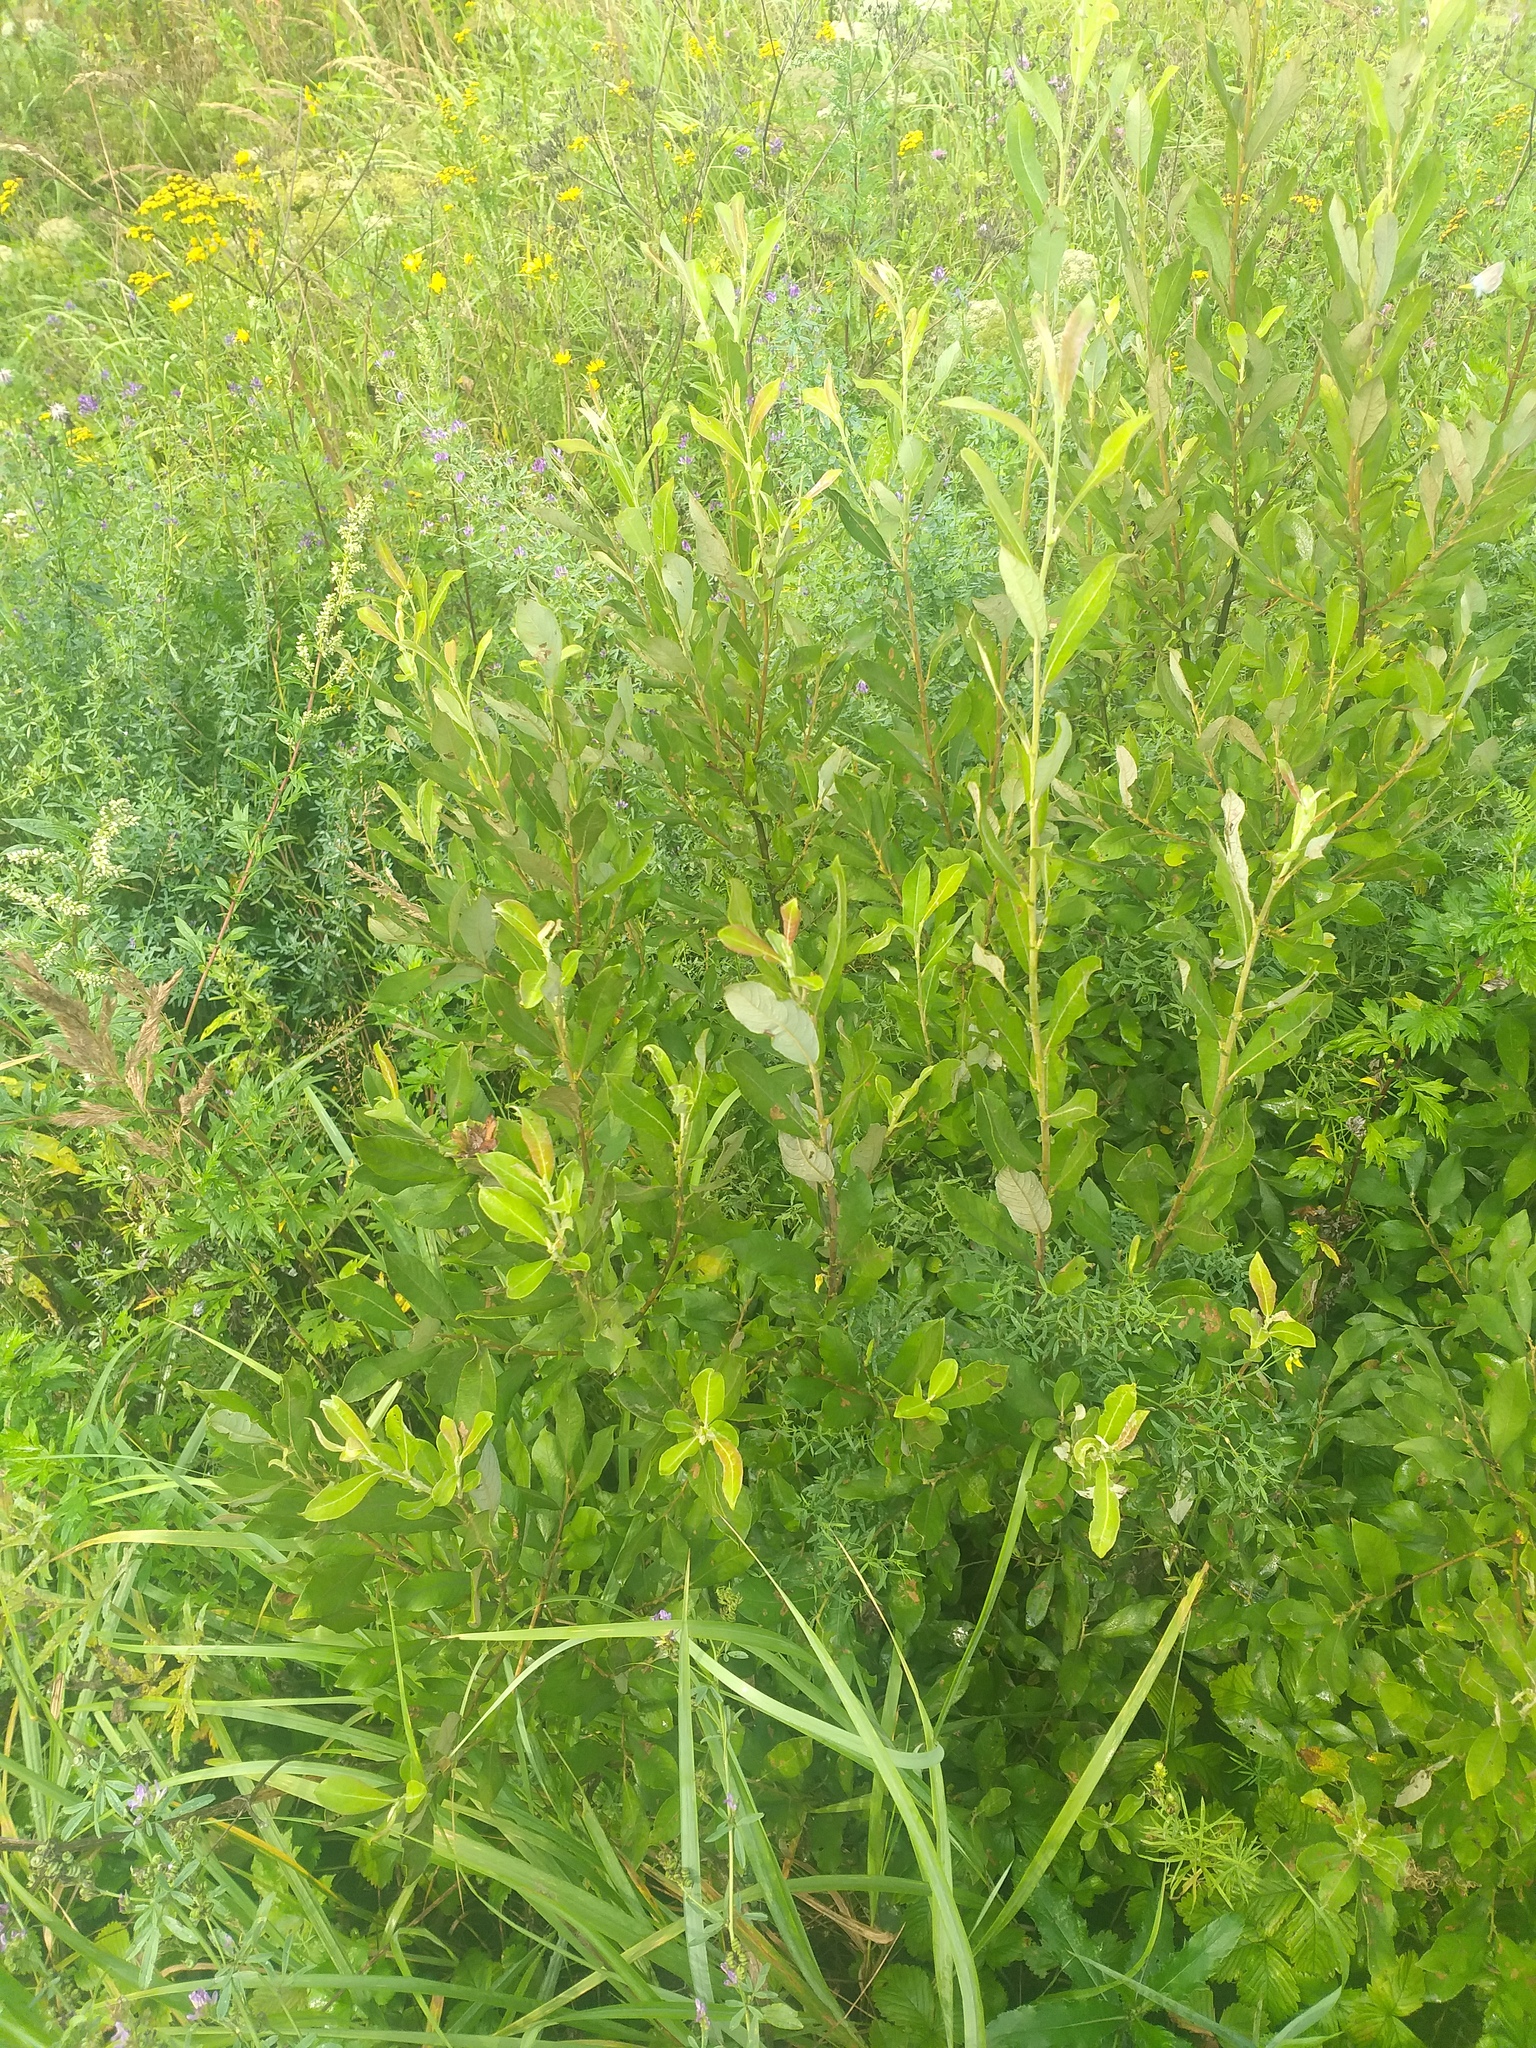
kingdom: Plantae
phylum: Tracheophyta
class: Magnoliopsida
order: Malpighiales
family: Salicaceae
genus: Salix
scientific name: Salix cinerea
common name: Common sallow
